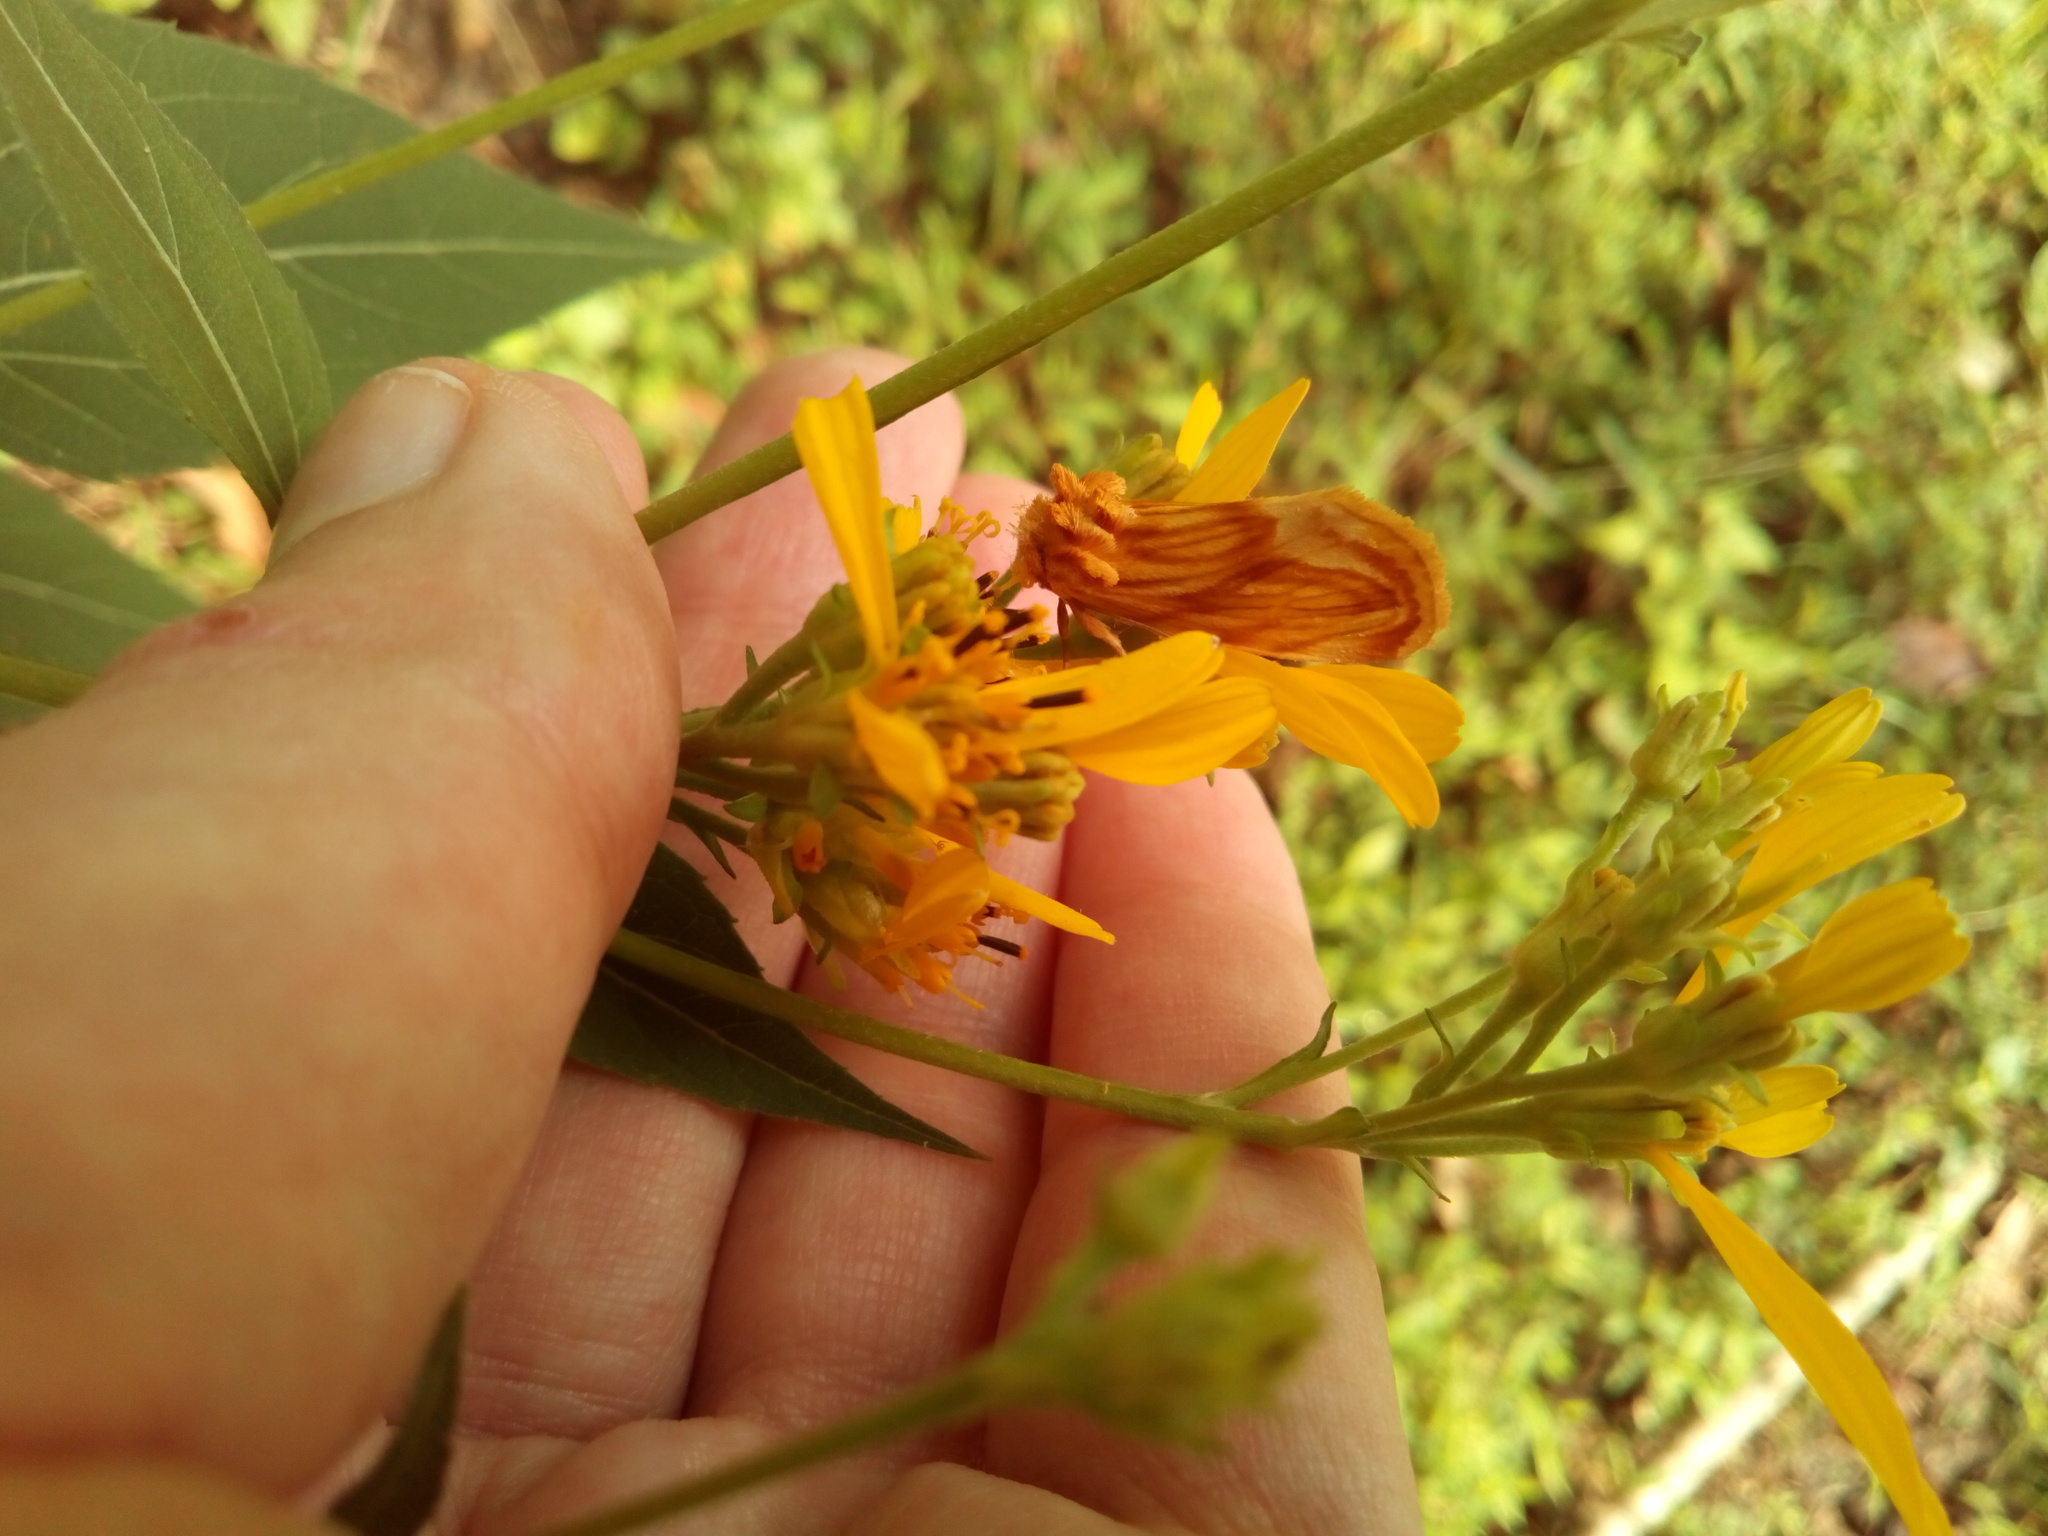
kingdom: Animalia
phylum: Arthropoda
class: Insecta
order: Lepidoptera
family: Noctuidae
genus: Cirrhophanus
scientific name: Cirrhophanus triangulifer
